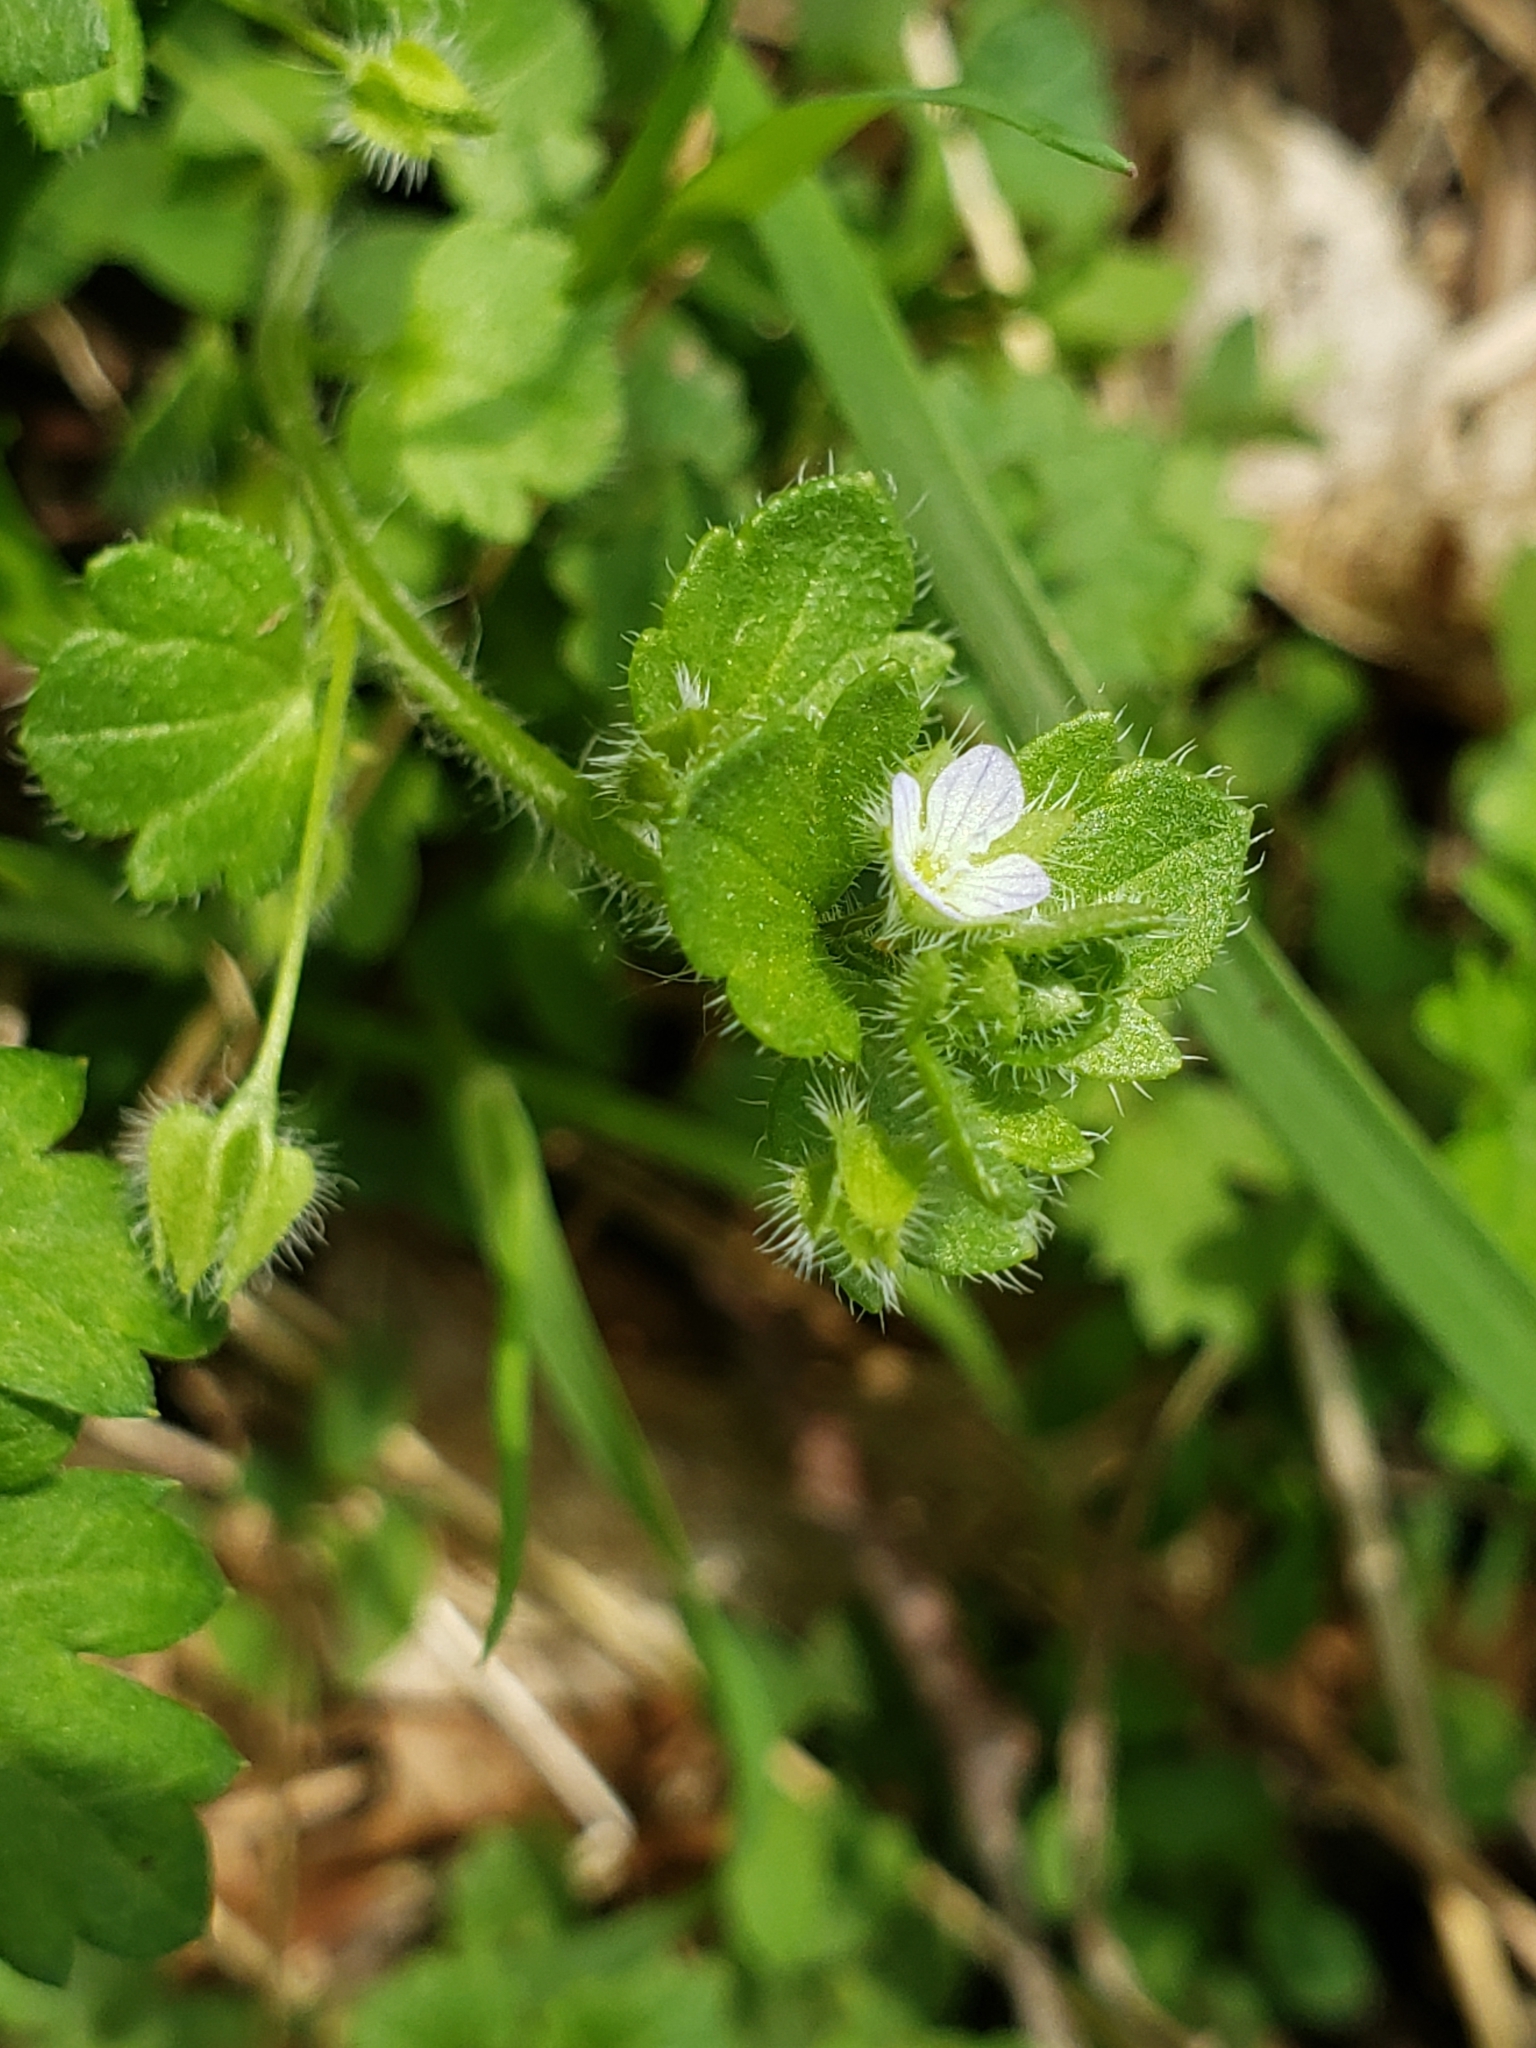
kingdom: Plantae
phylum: Tracheophyta
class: Magnoliopsida
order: Lamiales
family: Plantaginaceae
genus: Veronica
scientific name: Veronica hederifolia
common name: Ivy-leaved speedwell
